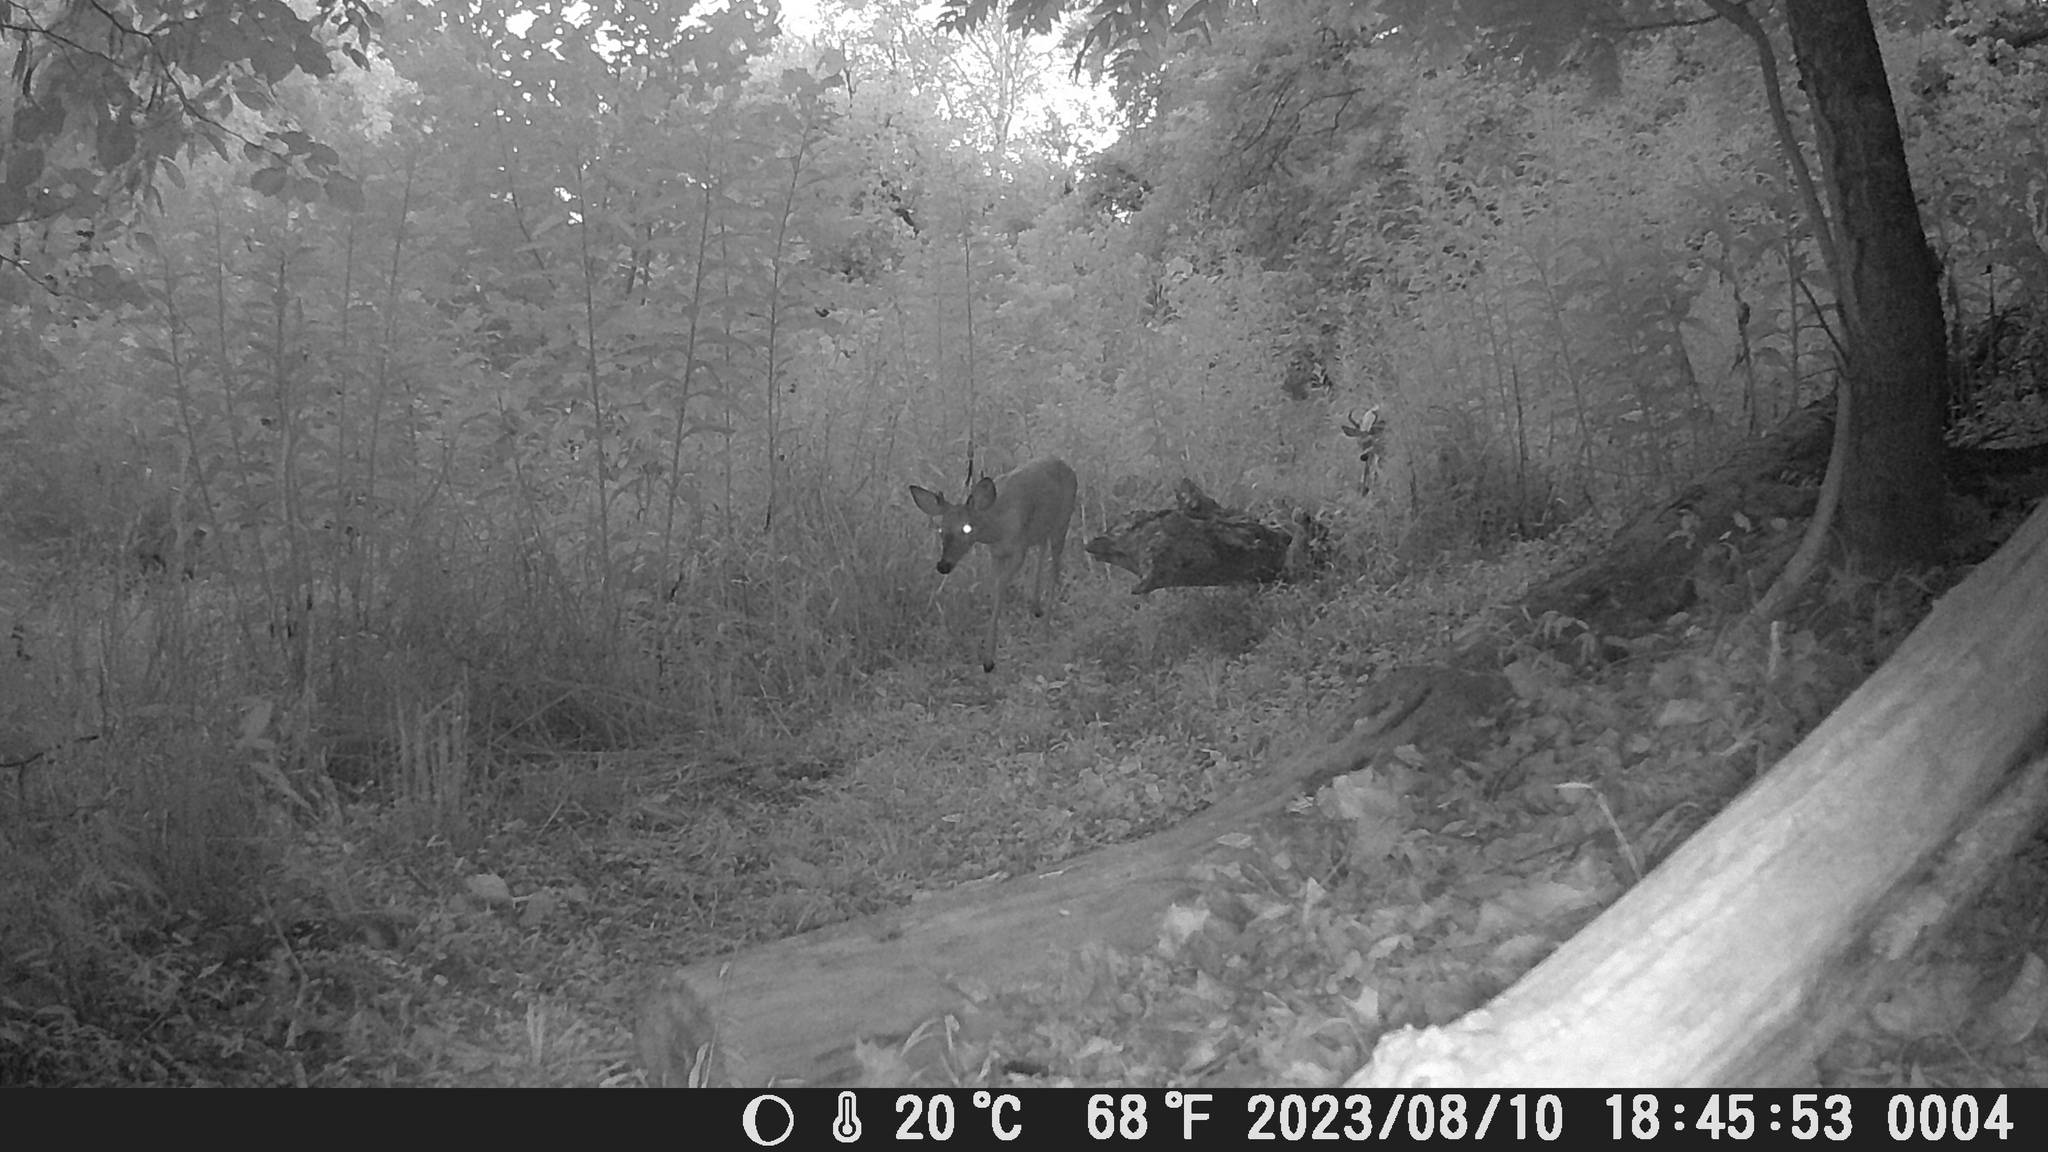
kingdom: Animalia
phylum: Chordata
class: Mammalia
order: Artiodactyla
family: Cervidae
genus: Odocoileus
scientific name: Odocoileus virginianus
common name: White-tailed deer
